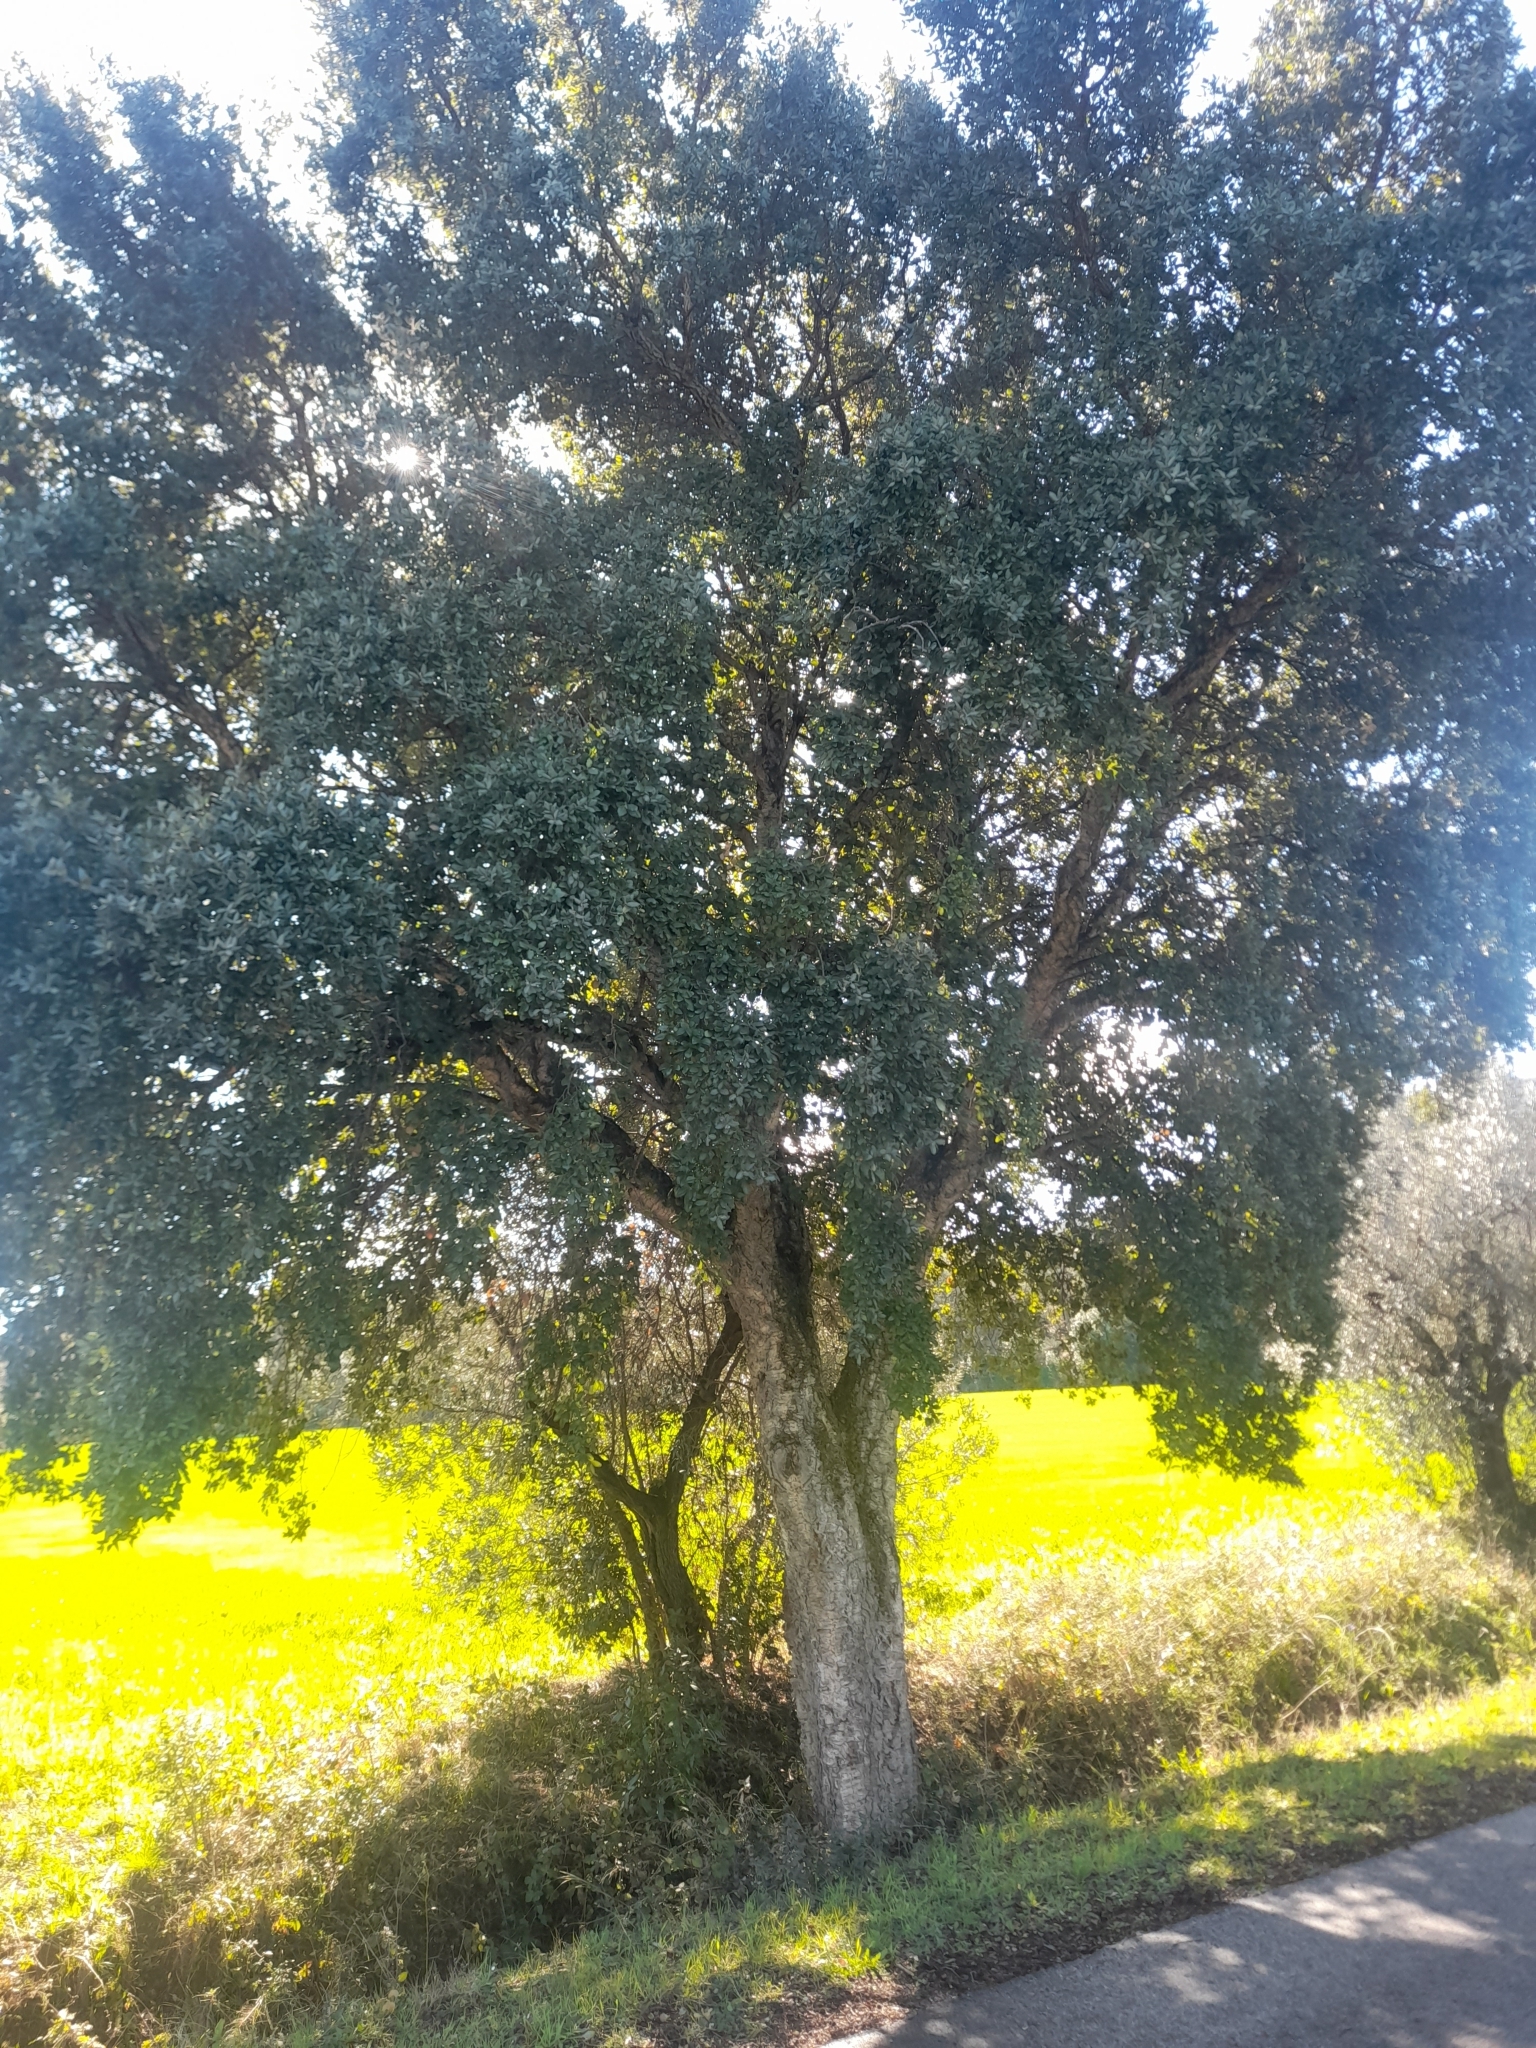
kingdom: Plantae
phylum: Tracheophyta
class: Magnoliopsida
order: Fagales
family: Fagaceae
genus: Quercus
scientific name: Quercus suber
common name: Cork oak
